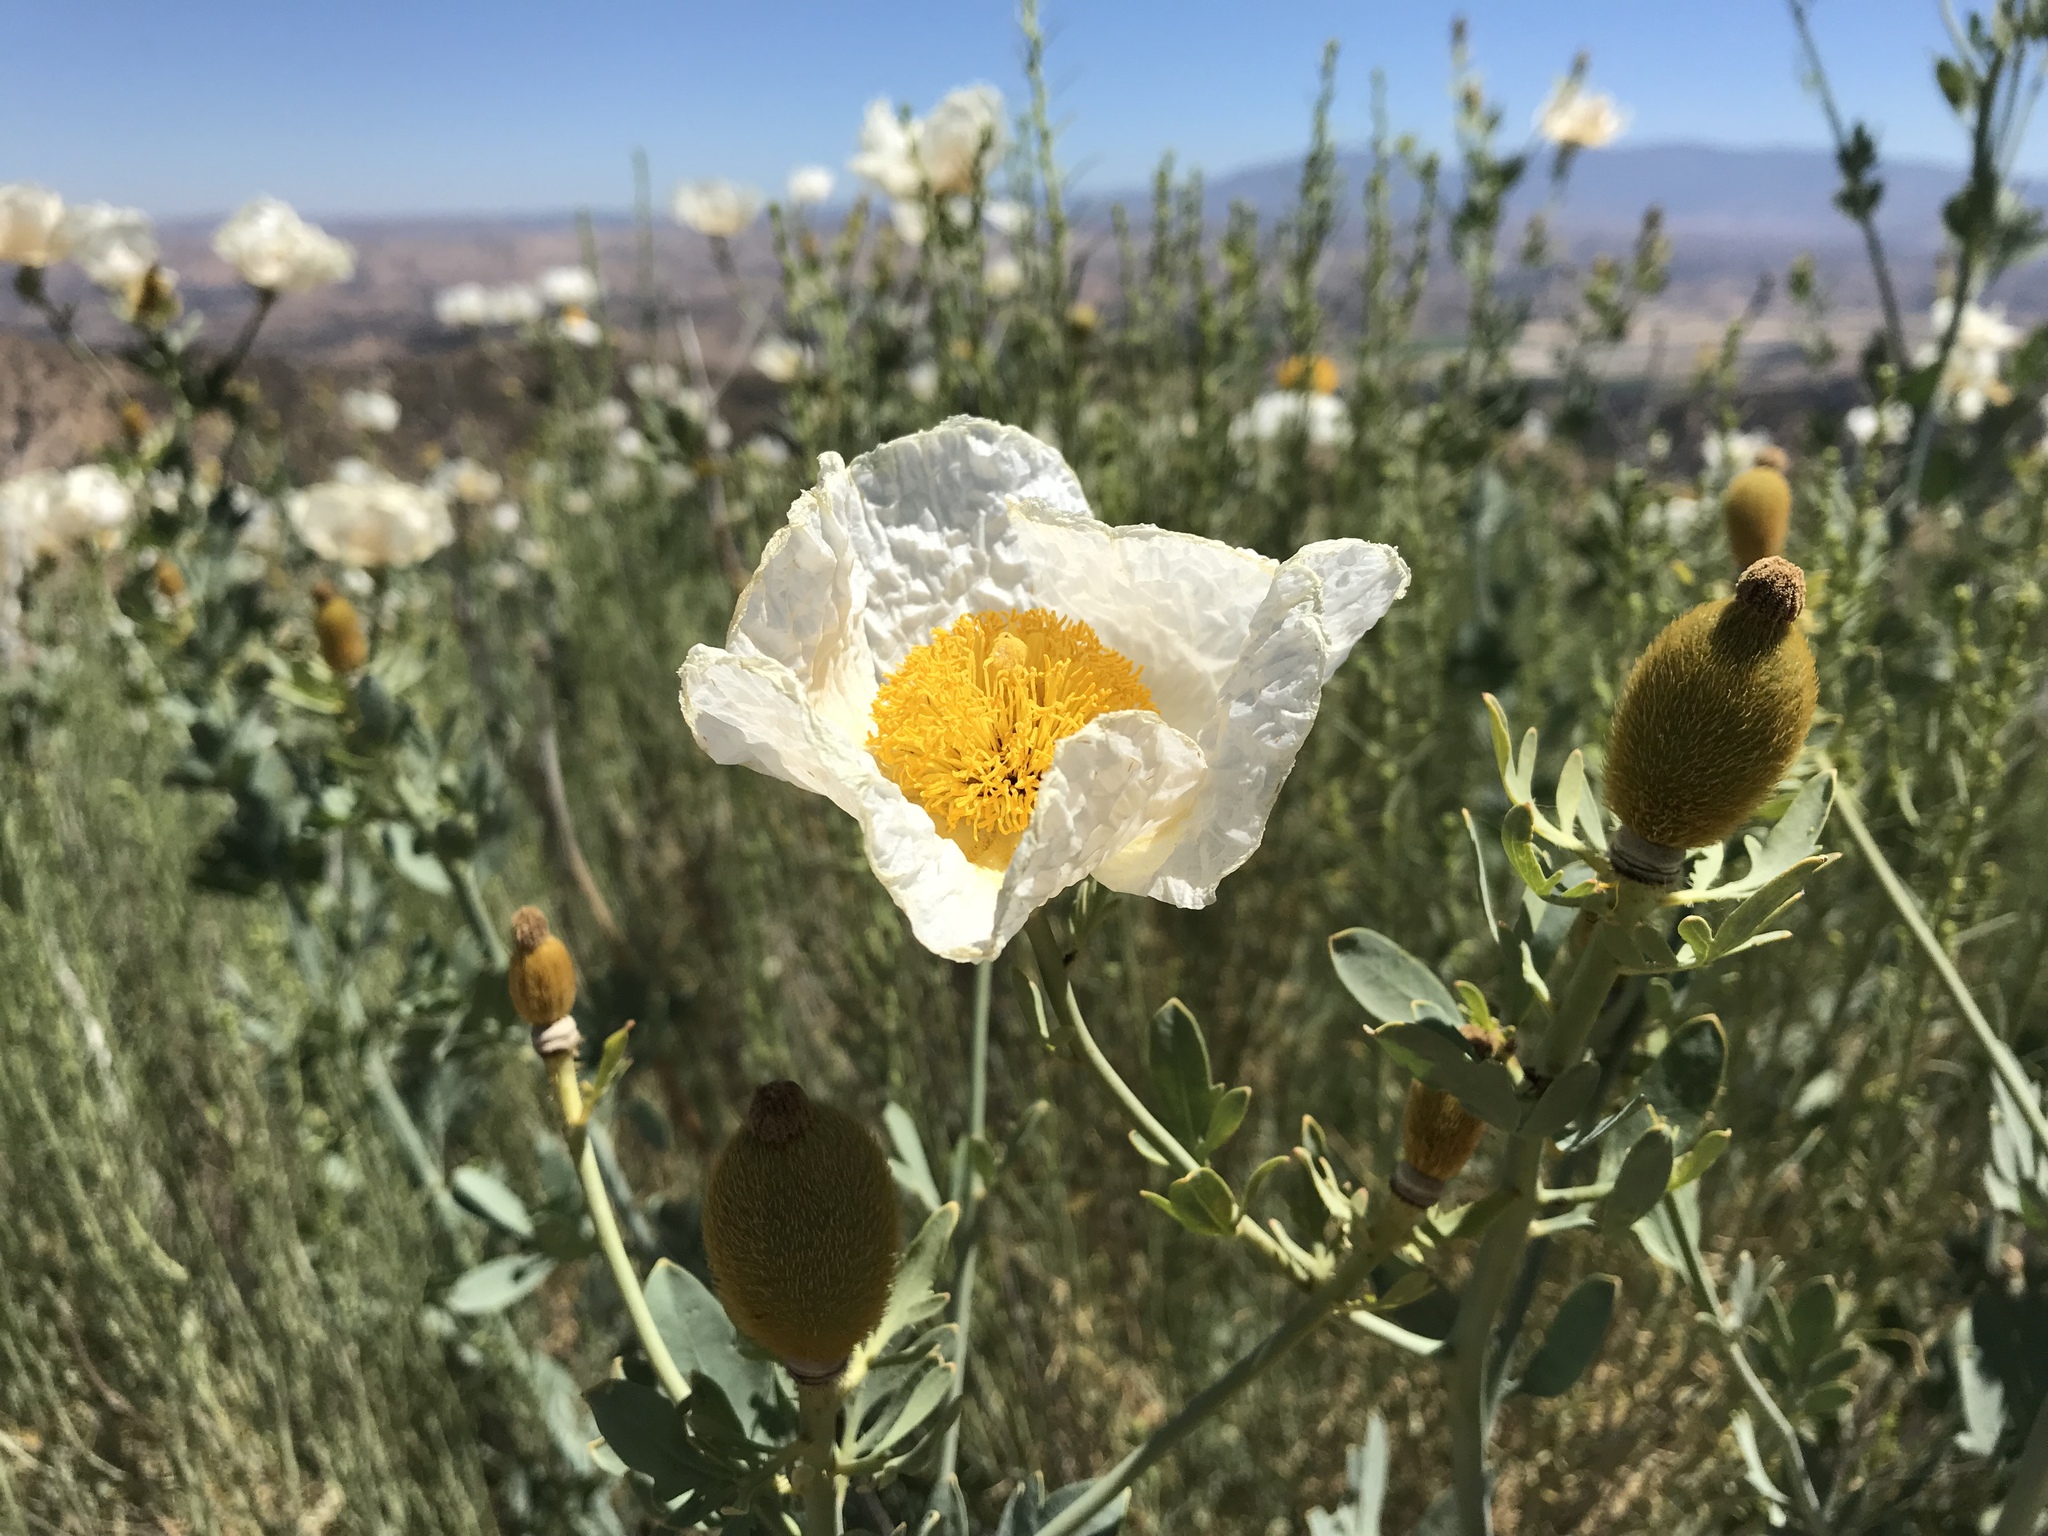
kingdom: Plantae
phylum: Tracheophyta
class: Magnoliopsida
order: Ranunculales
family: Papaveraceae
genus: Romneya
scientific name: Romneya trichocalyx
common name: Hairy matilija-poppy
